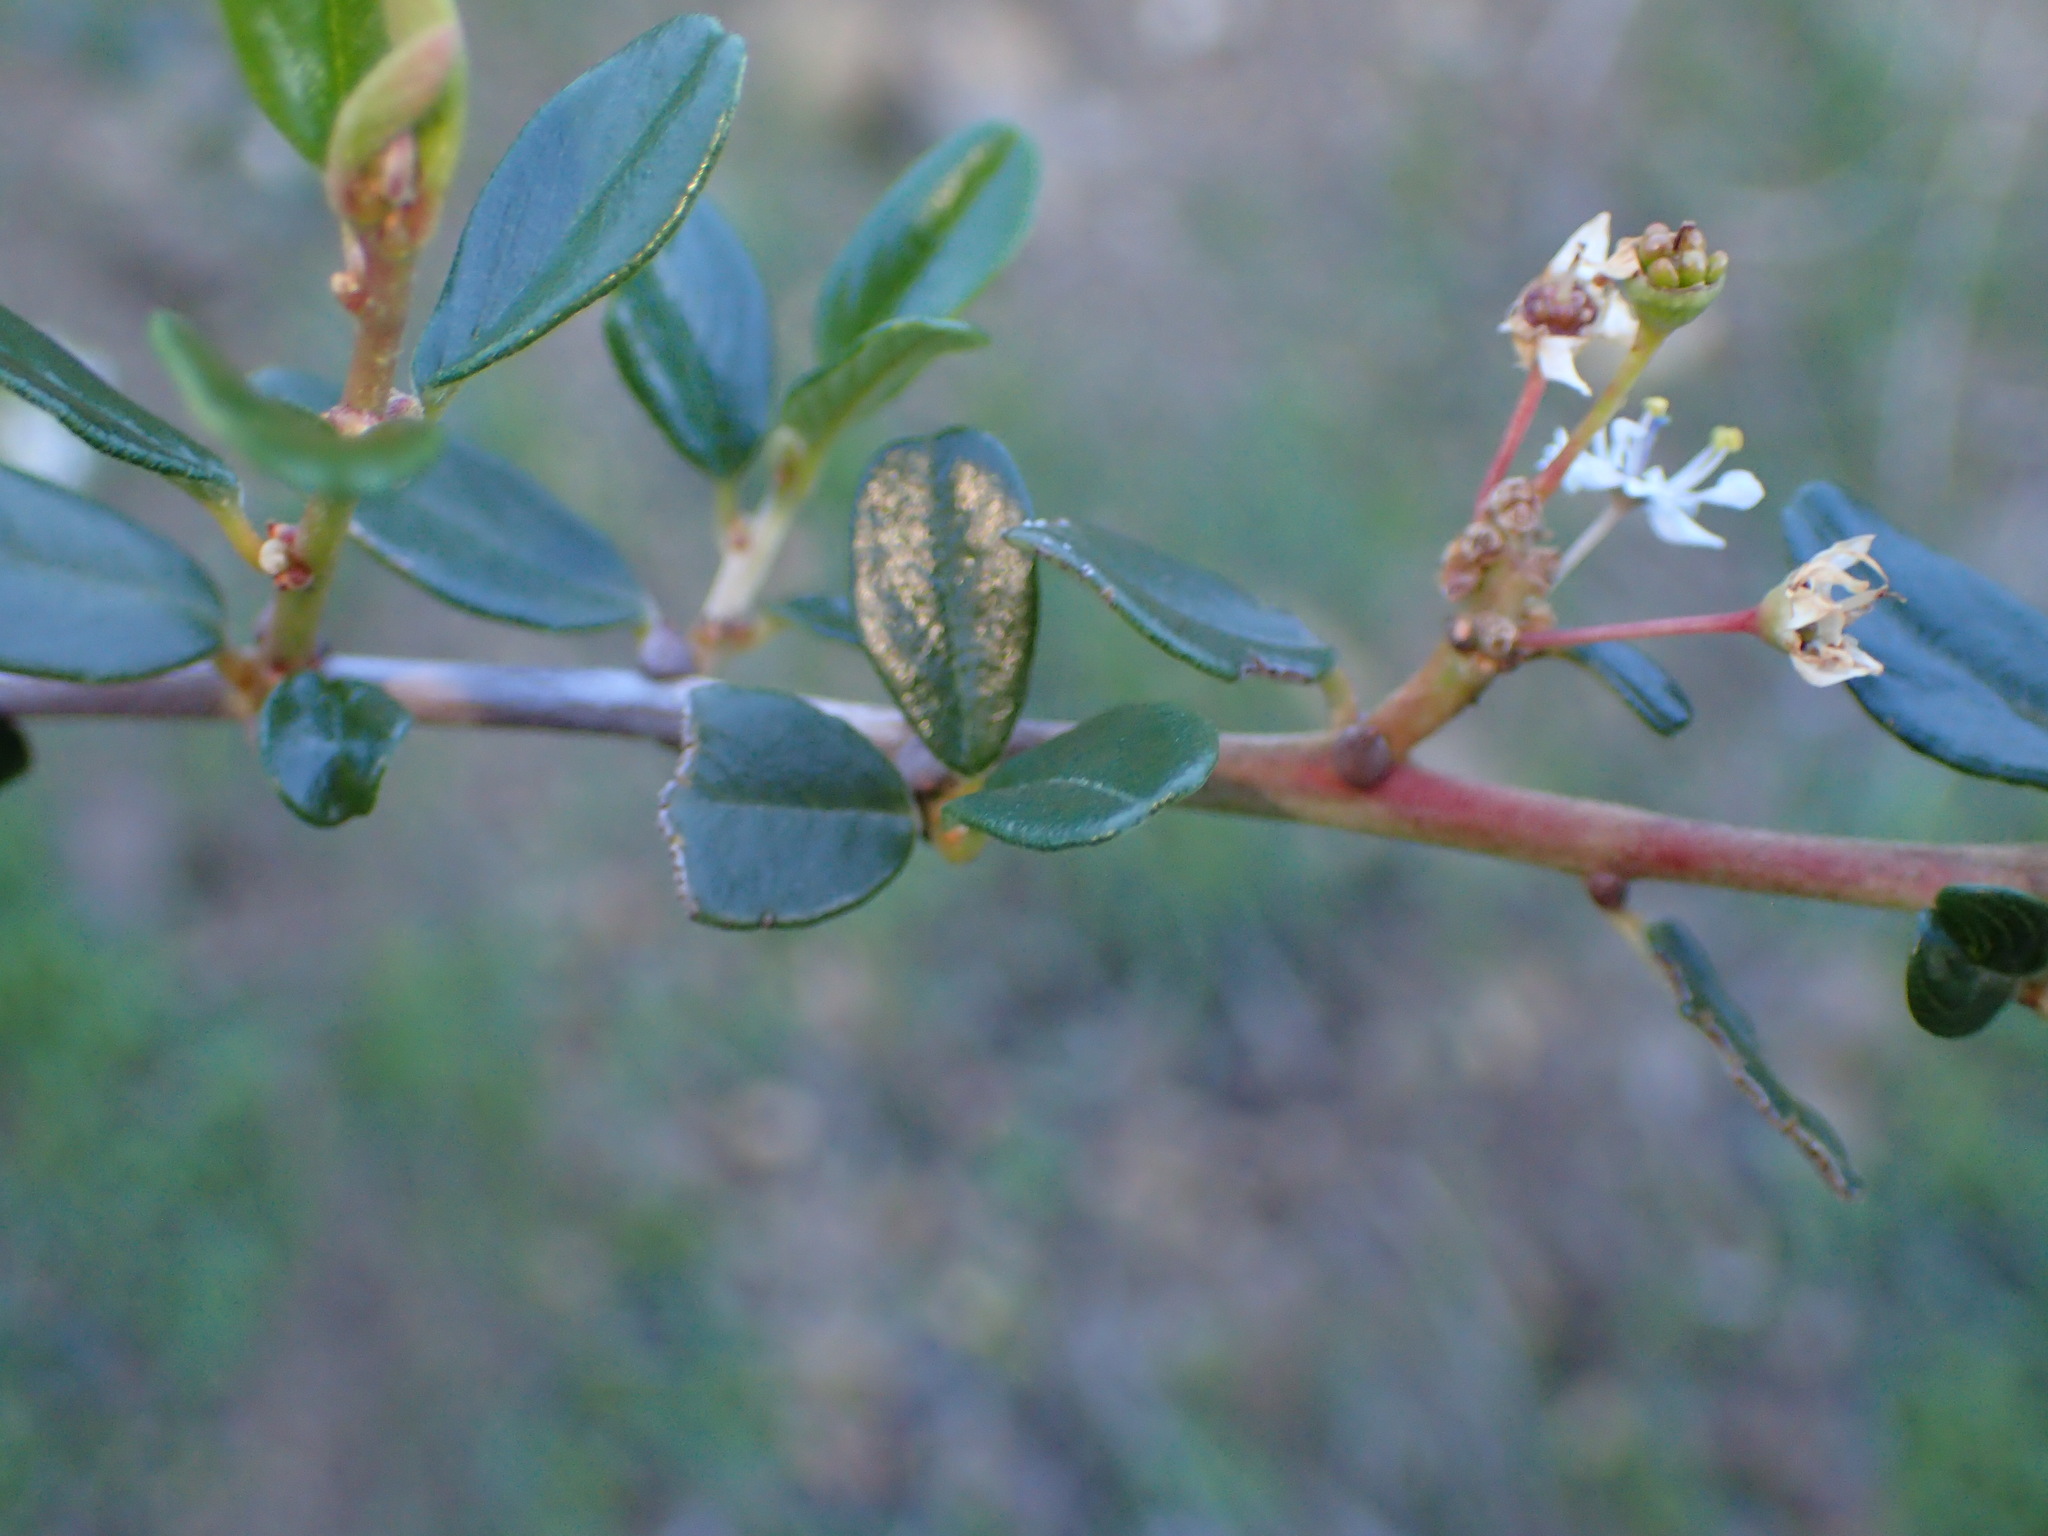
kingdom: Plantae
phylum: Tracheophyta
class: Magnoliopsida
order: Rosales
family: Rhamnaceae
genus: Ceanothus
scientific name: Ceanothus megacarpus
